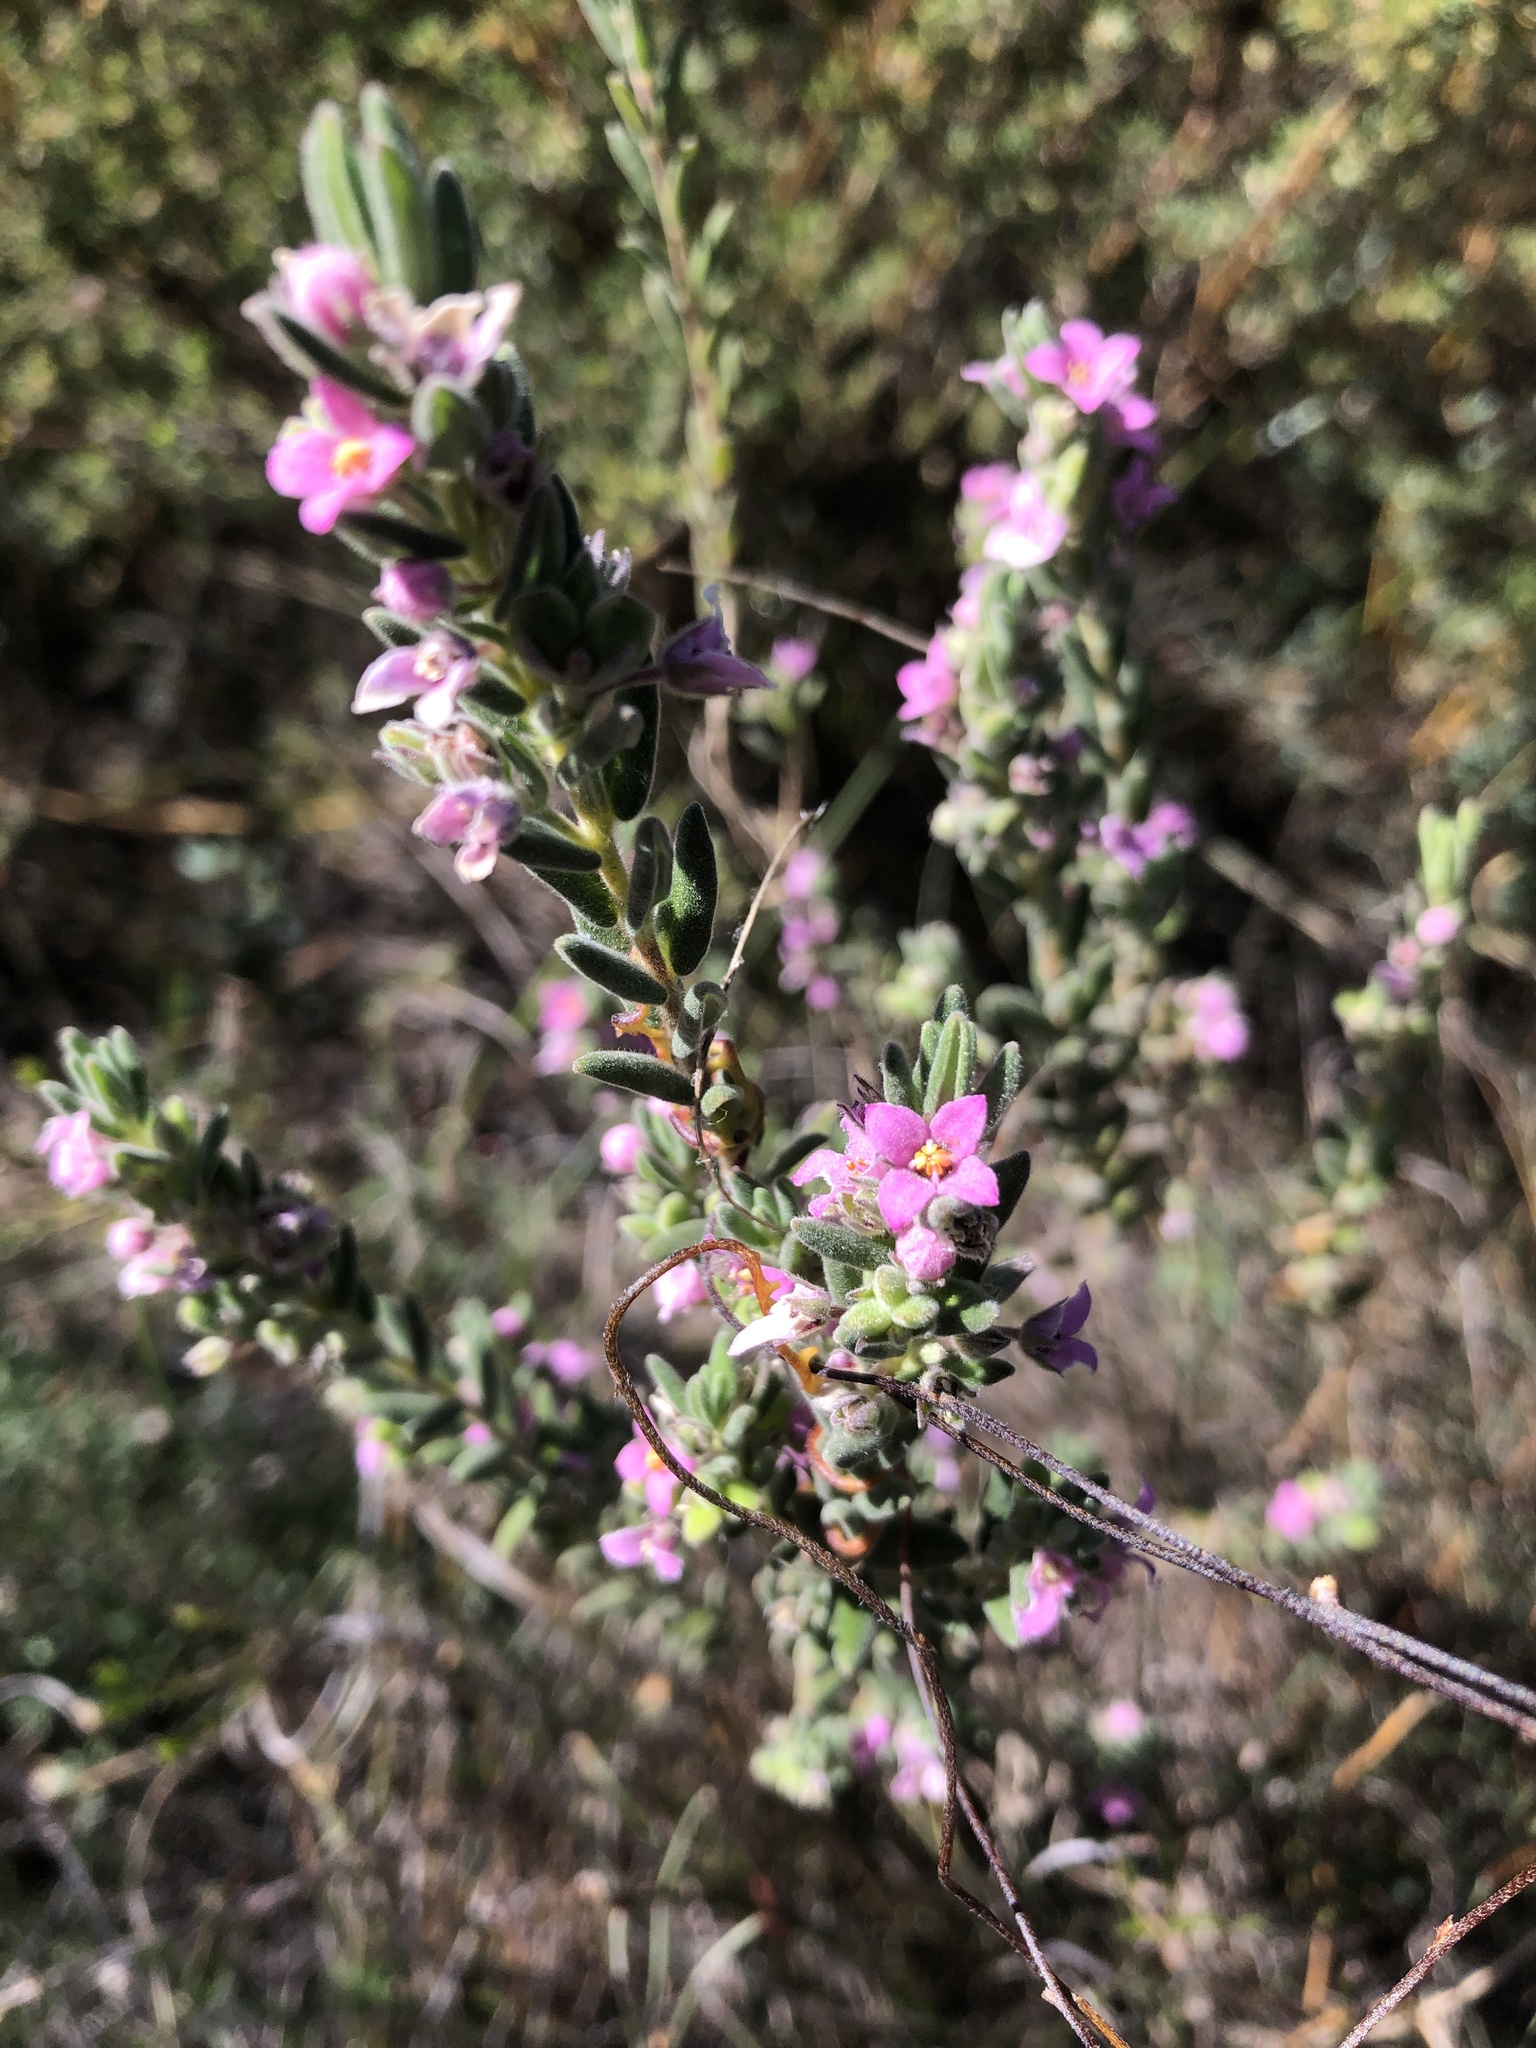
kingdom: Plantae
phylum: Tracheophyta
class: Magnoliopsida
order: Sapindales
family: Rutaceae
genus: Zieria
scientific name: Zieria veronicea
